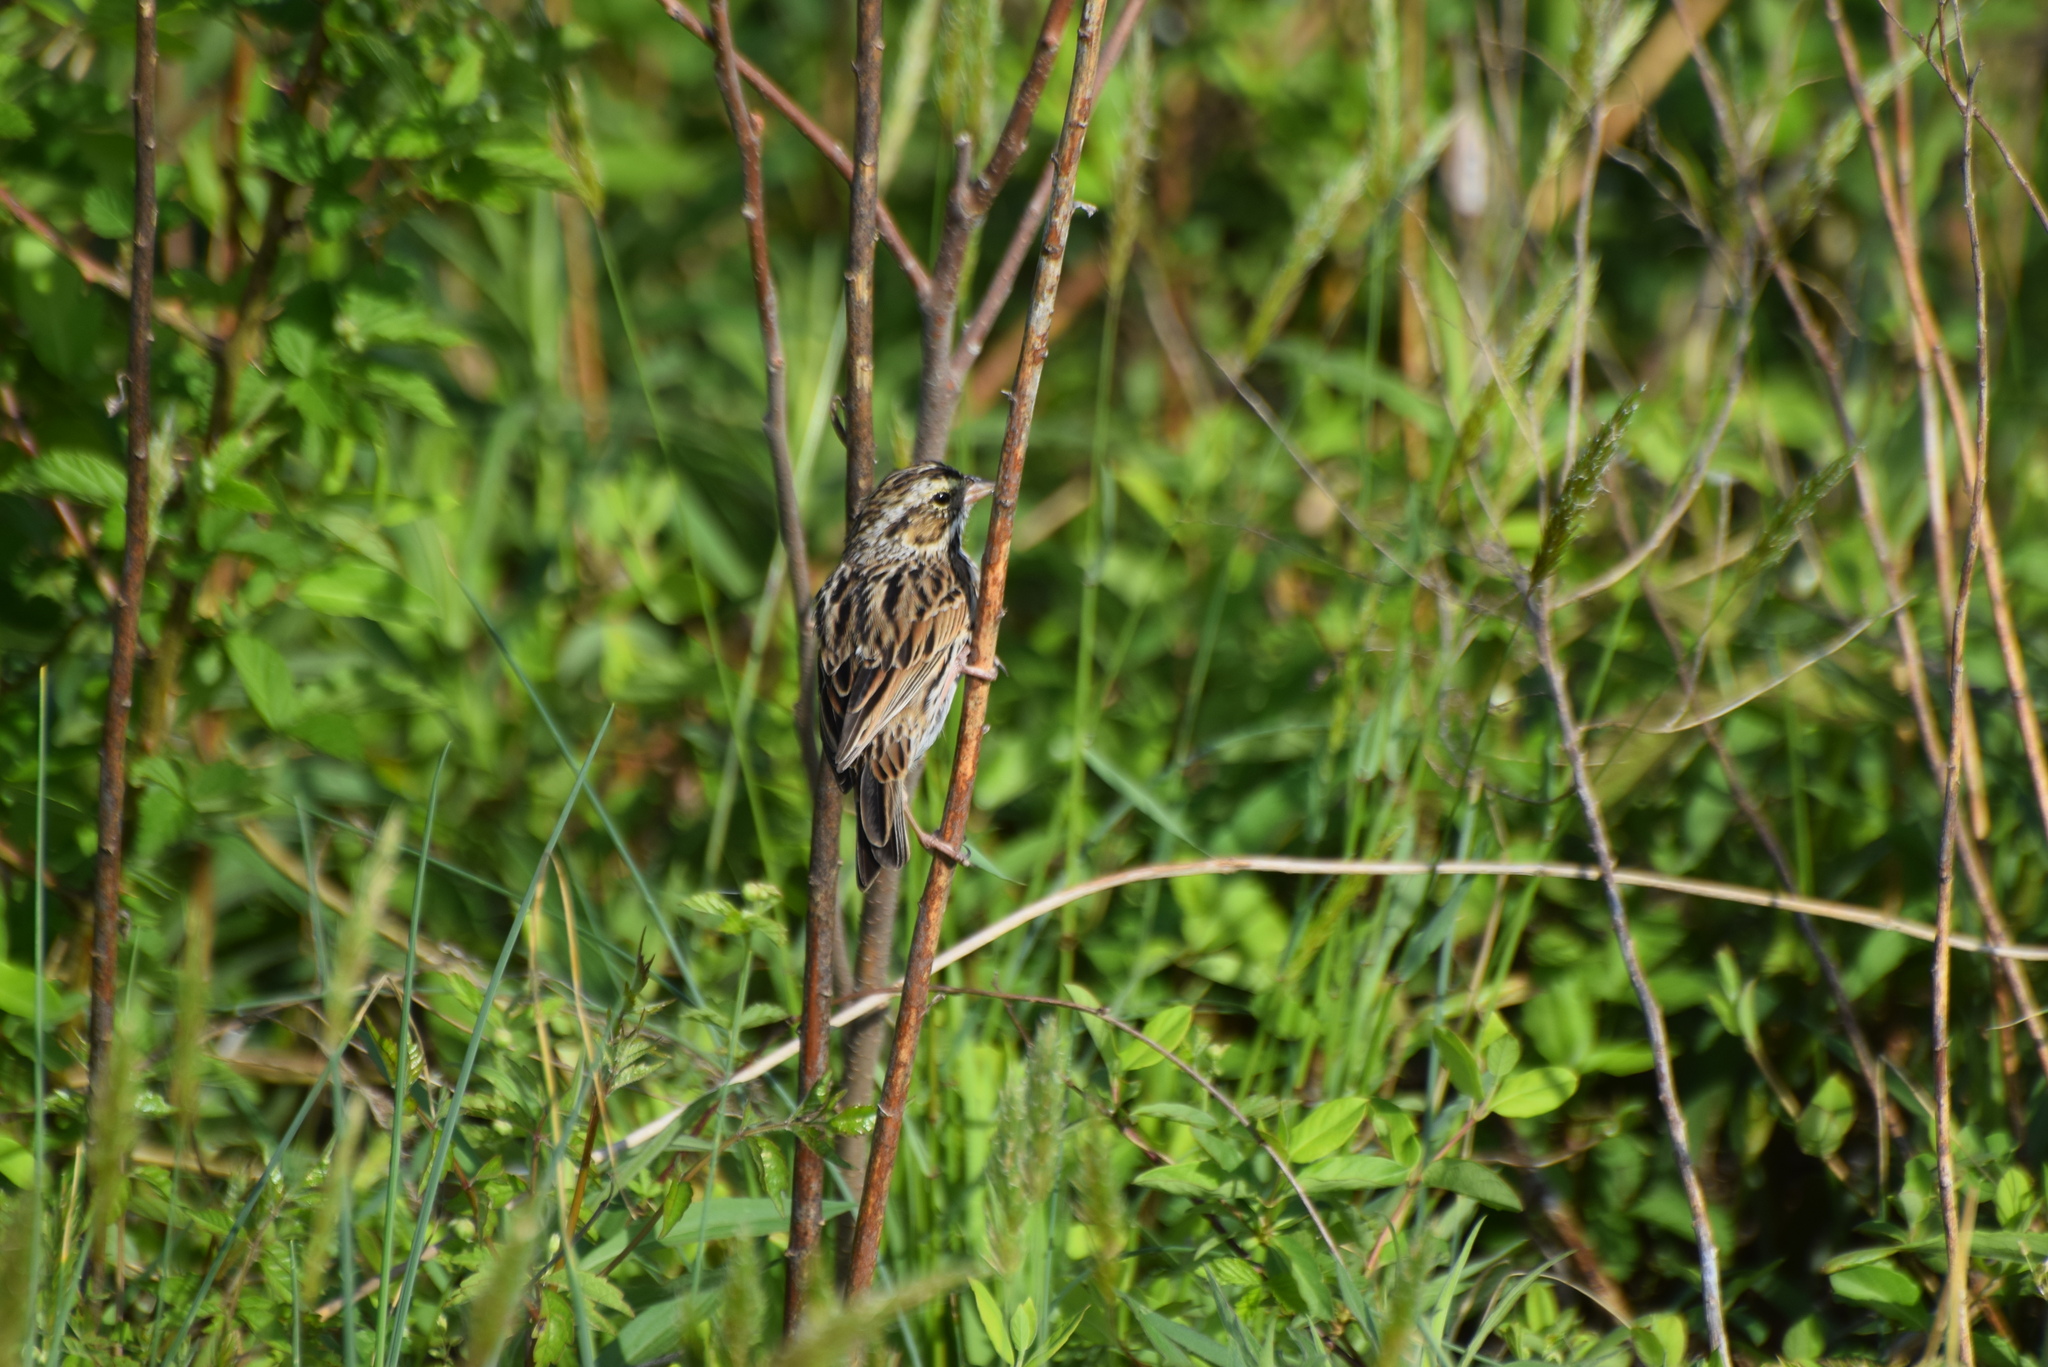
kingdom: Animalia
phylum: Chordata
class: Aves
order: Passeriformes
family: Passerellidae
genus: Passerculus
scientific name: Passerculus sandwichensis
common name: Savannah sparrow
